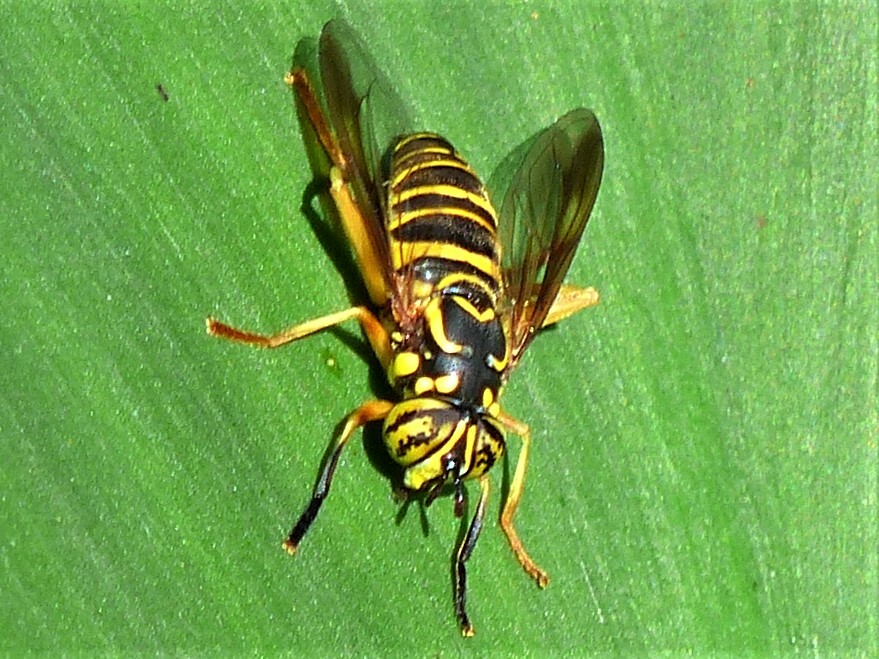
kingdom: Animalia
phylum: Arthropoda
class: Insecta
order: Diptera
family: Syrphidae
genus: Spilomyia
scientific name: Spilomyia longicornis
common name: Eastern hornet fly
